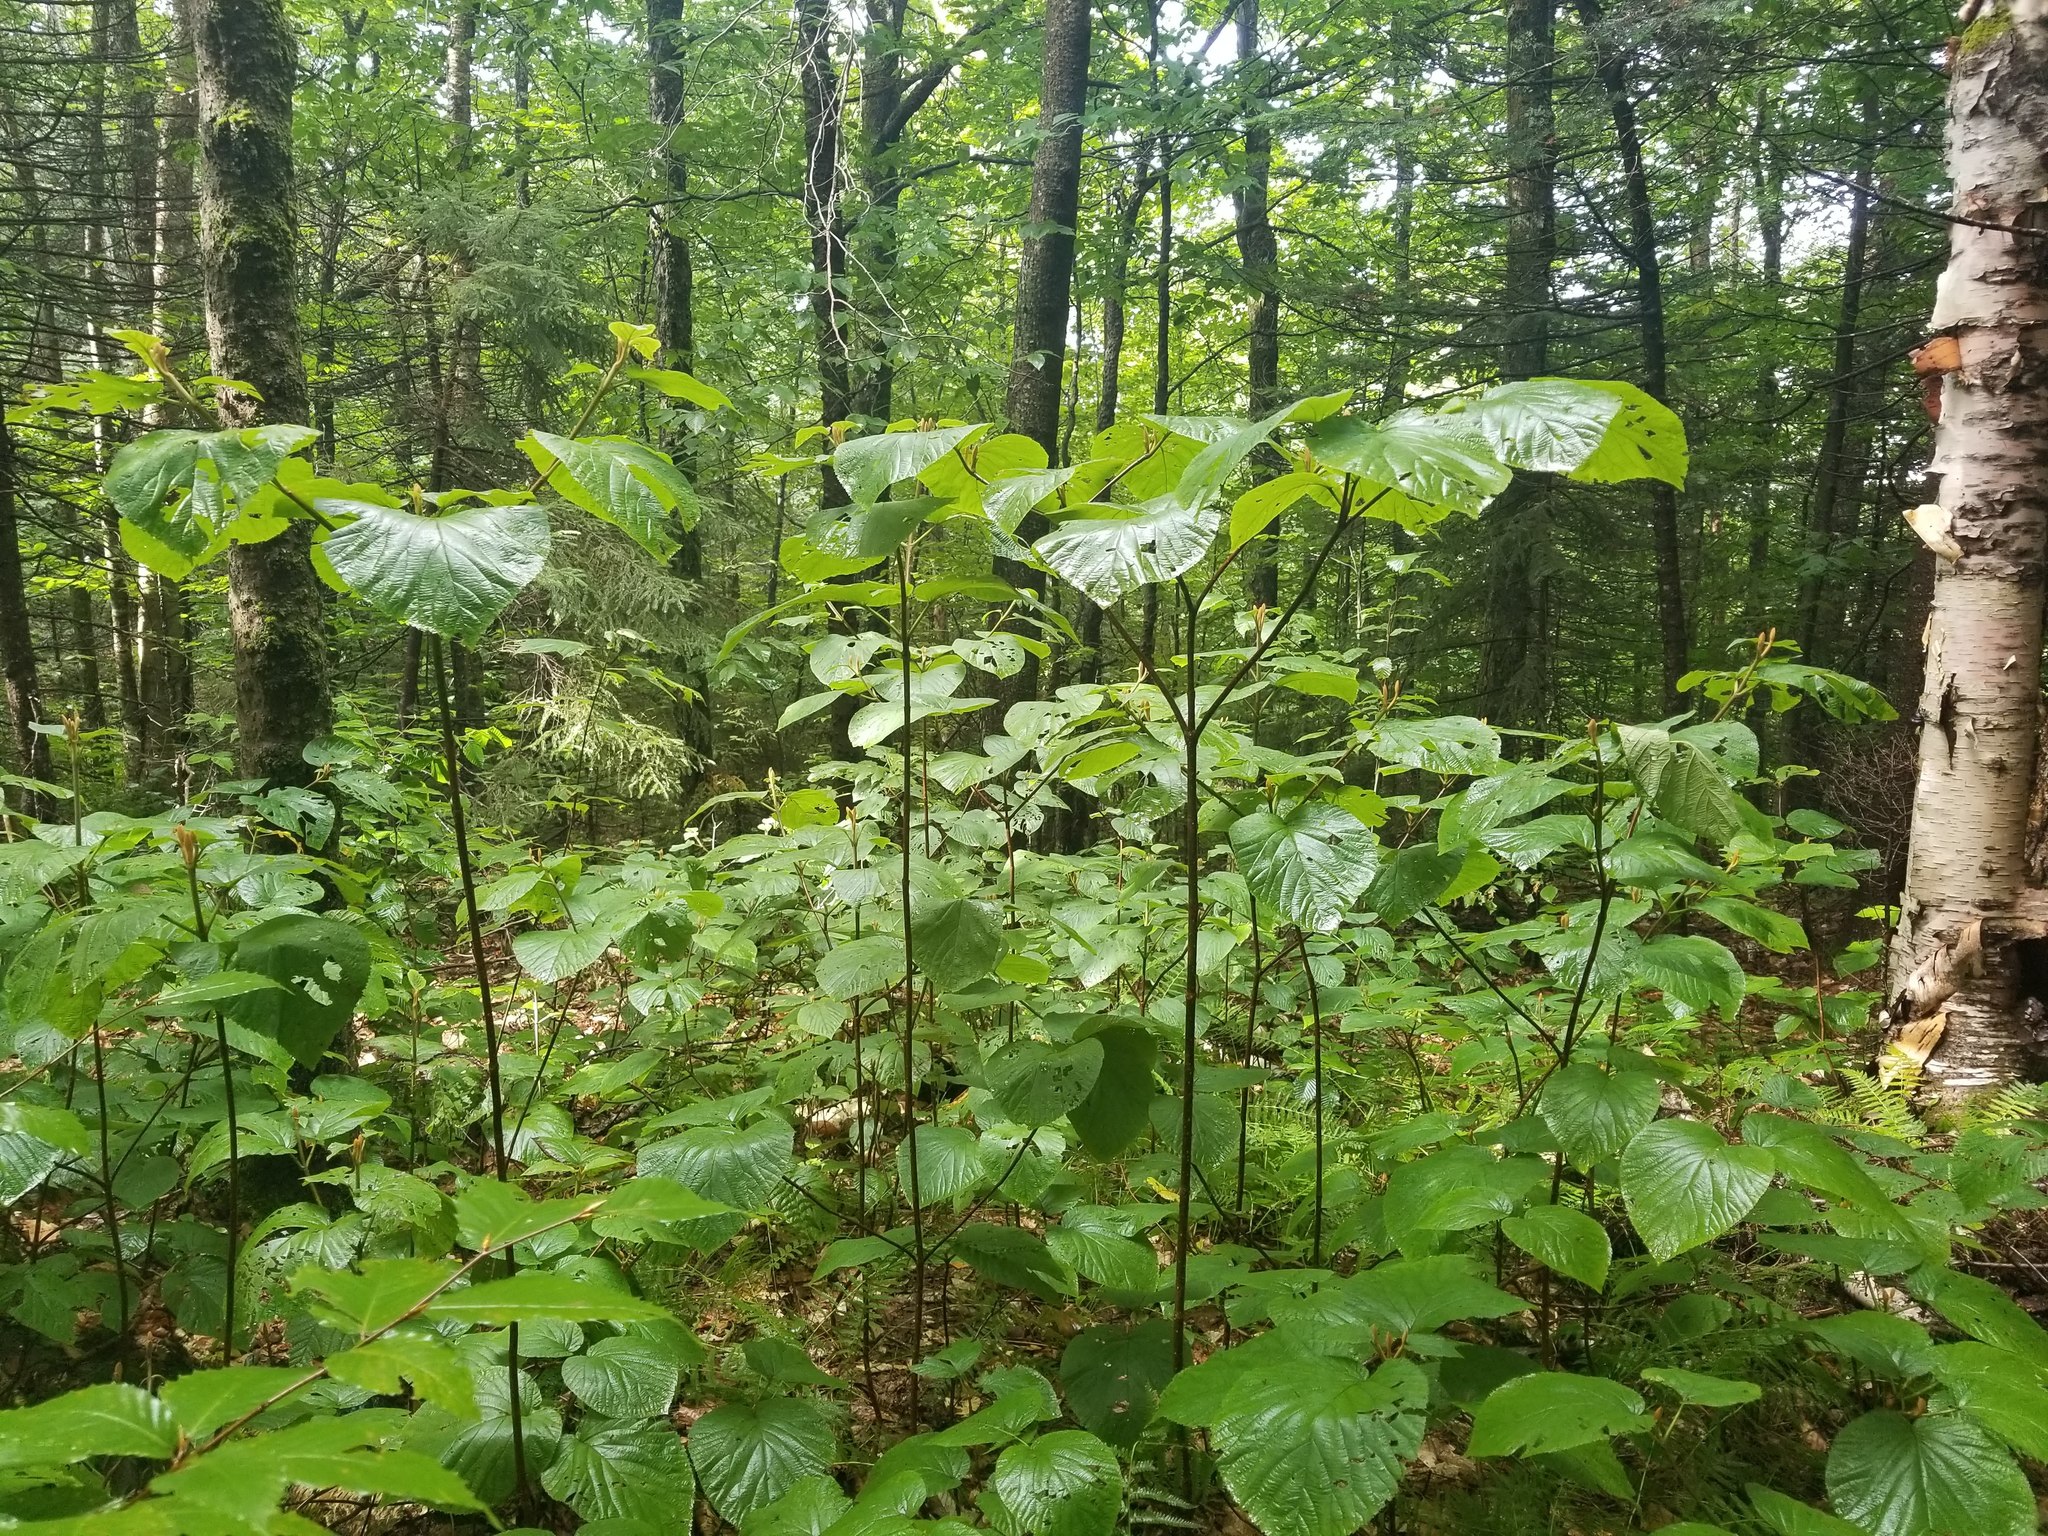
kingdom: Plantae
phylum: Tracheophyta
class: Magnoliopsida
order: Dipsacales
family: Viburnaceae
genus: Viburnum
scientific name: Viburnum lantanoides
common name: Hobblebush
